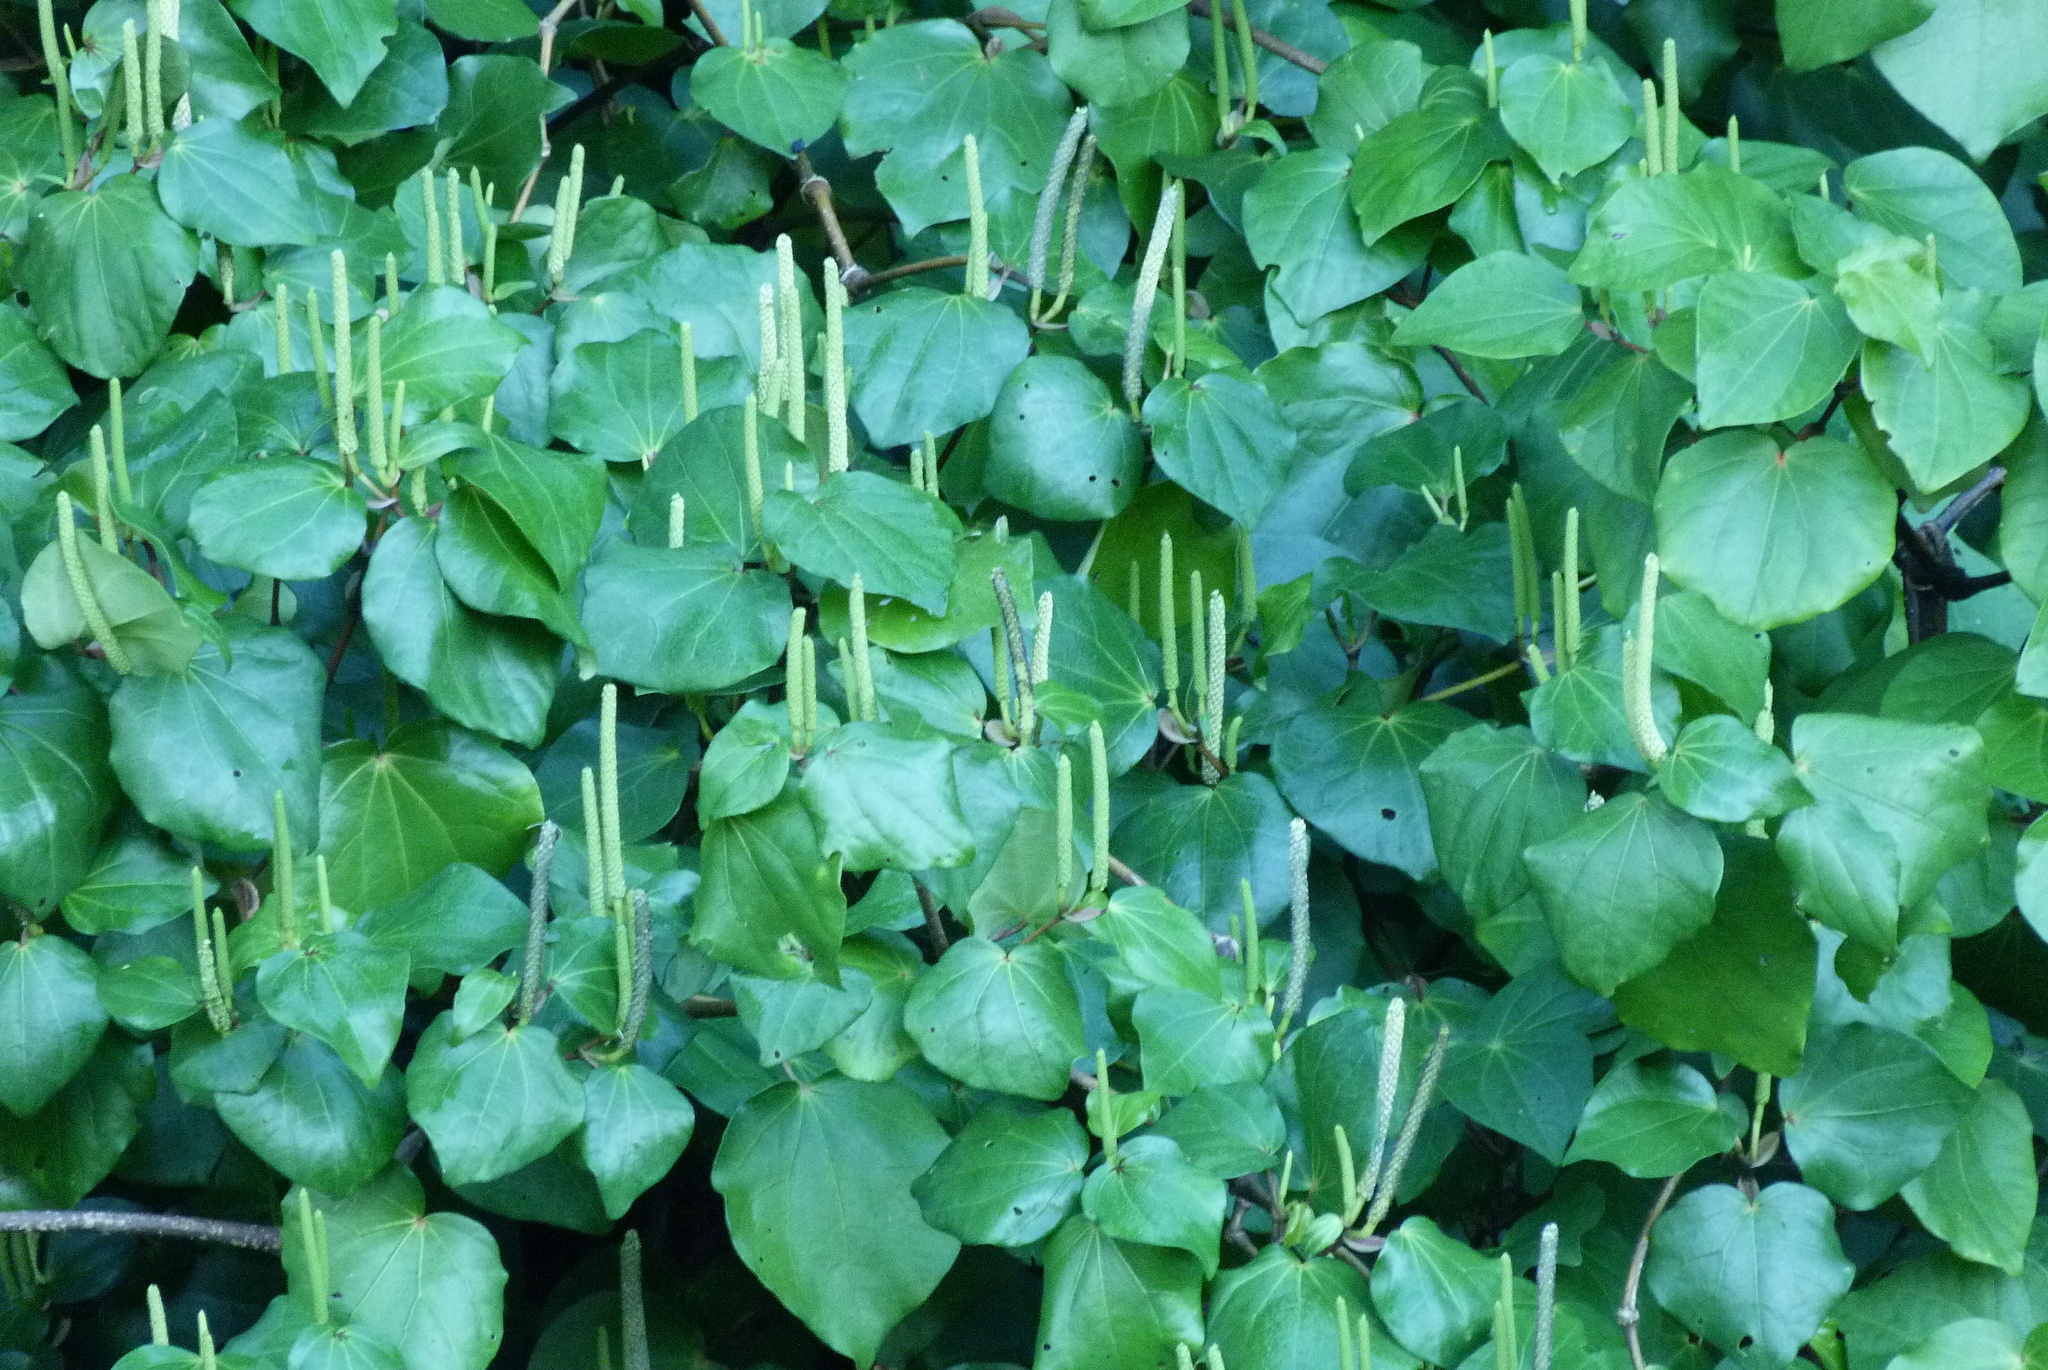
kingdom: Plantae
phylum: Tracheophyta
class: Magnoliopsida
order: Piperales
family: Piperaceae
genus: Macropiper
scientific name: Macropiper excelsum
